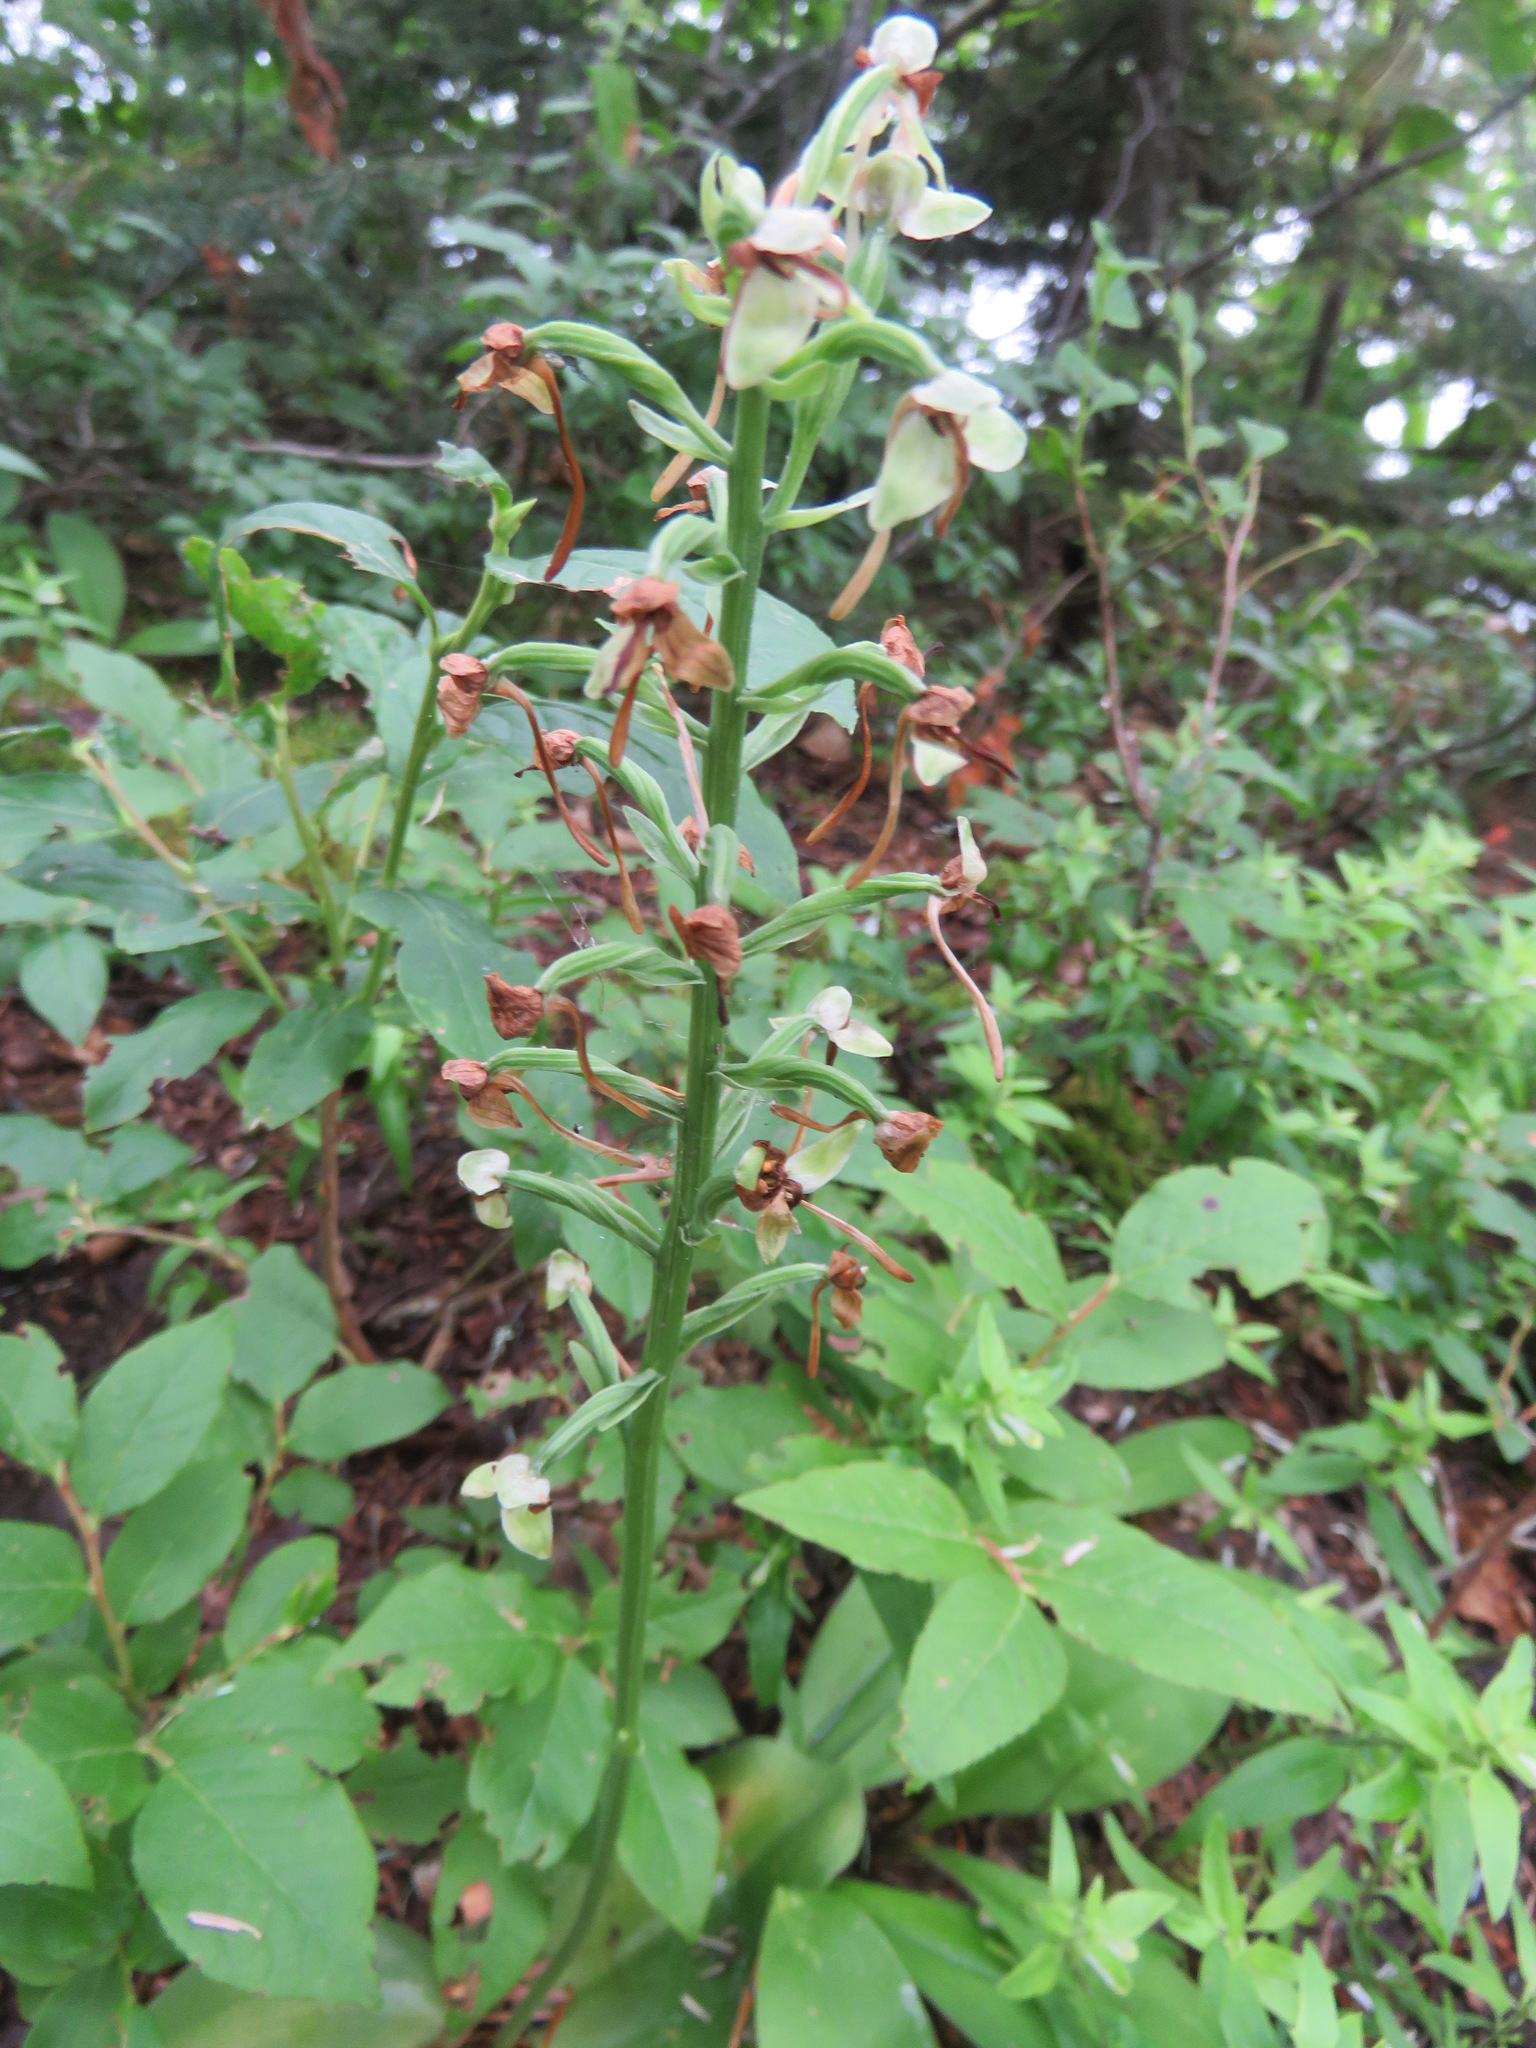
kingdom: Plantae
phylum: Tracheophyta
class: Liliopsida
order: Asparagales
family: Orchidaceae
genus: Platanthera
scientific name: Platanthera orbiculata
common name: Large round-leaved orchid
